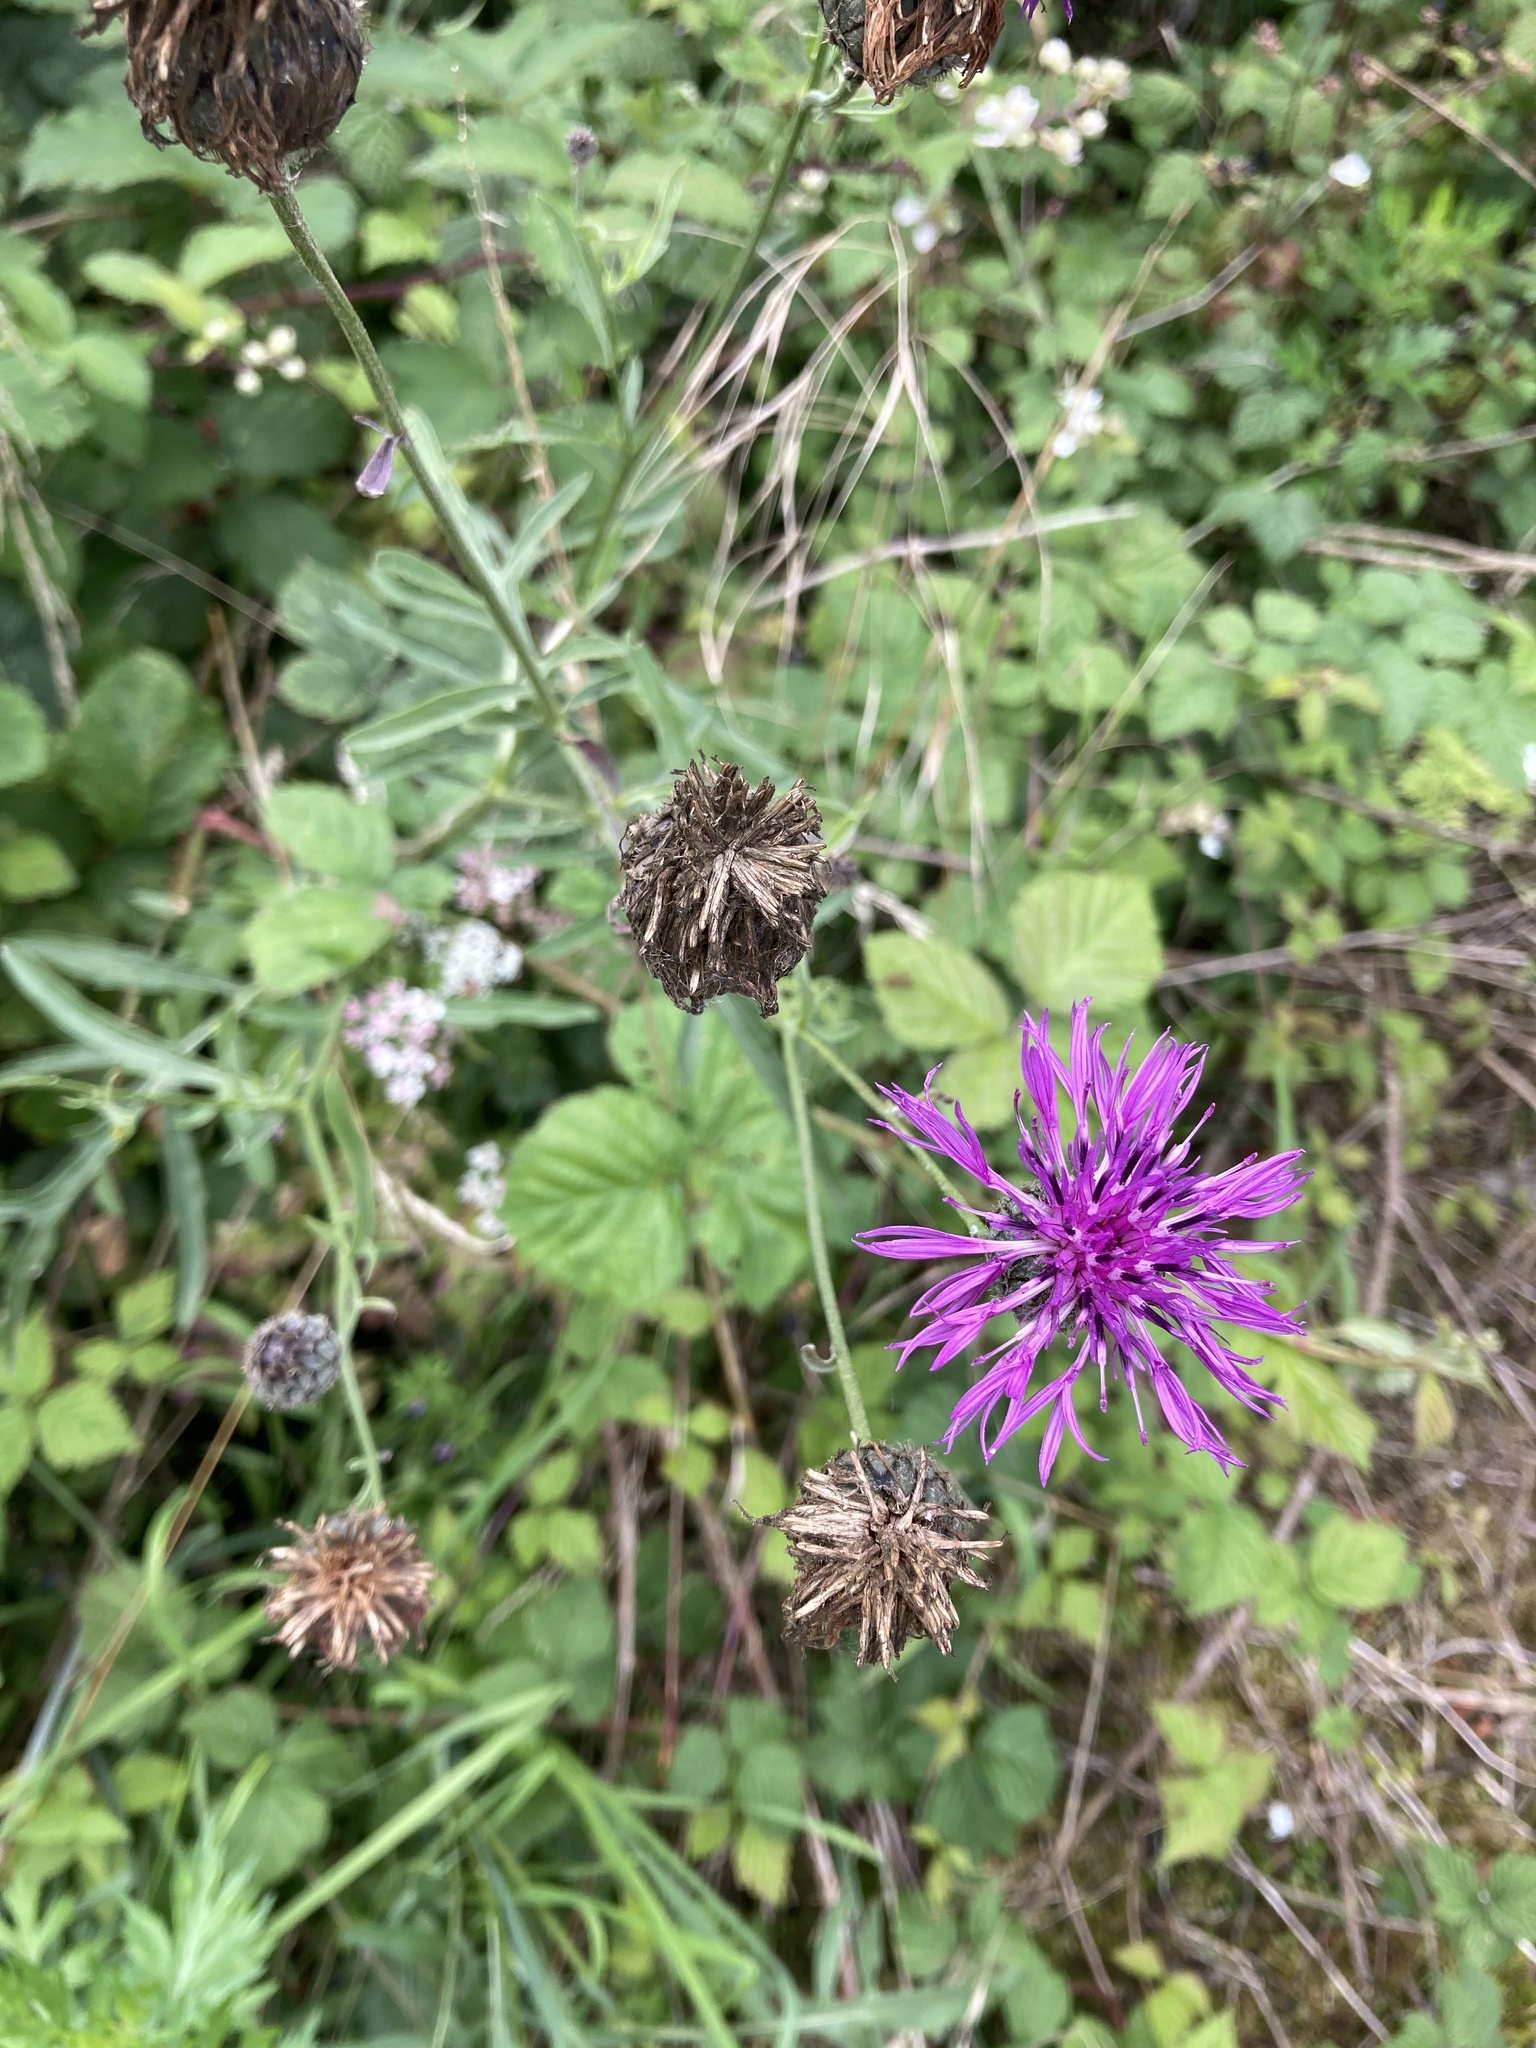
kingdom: Plantae
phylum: Tracheophyta
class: Magnoliopsida
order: Asterales
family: Asteraceae
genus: Centaurea
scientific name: Centaurea scabiosa
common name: Greater knapweed
